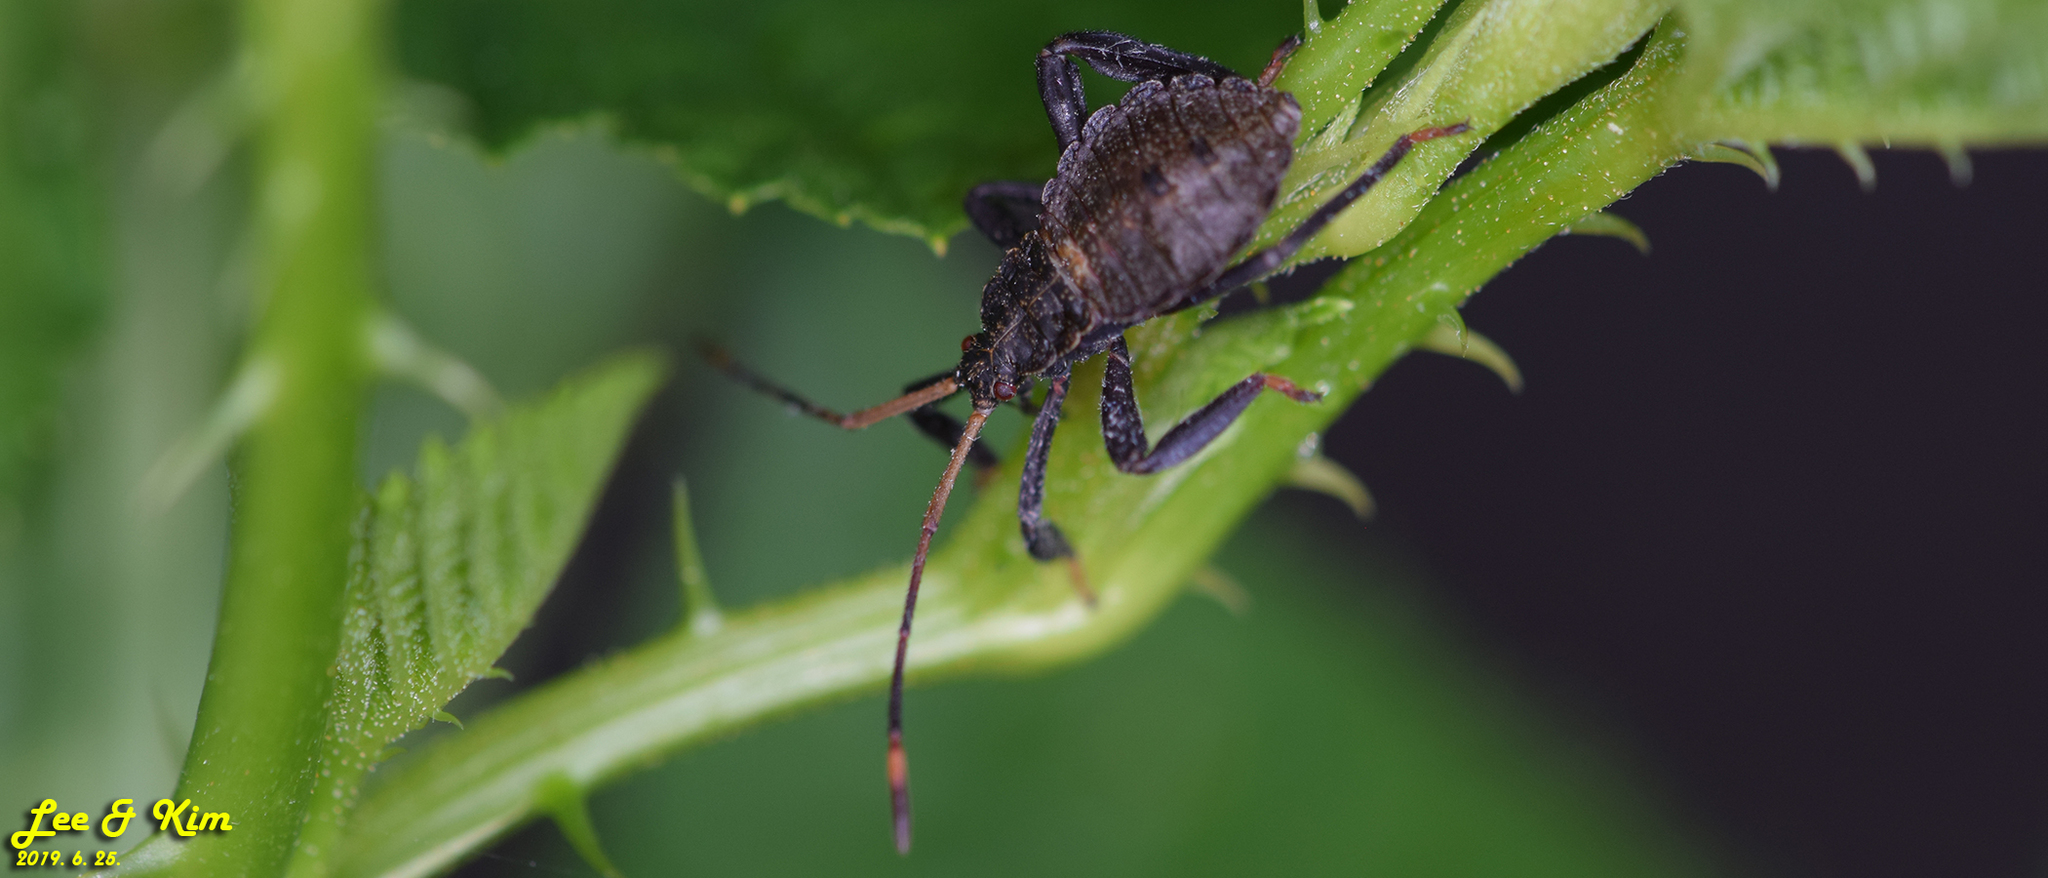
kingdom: Animalia
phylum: Arthropoda
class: Insecta
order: Hemiptera
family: Coreidae
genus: Molipteryx
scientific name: Molipteryx fuliginosa
